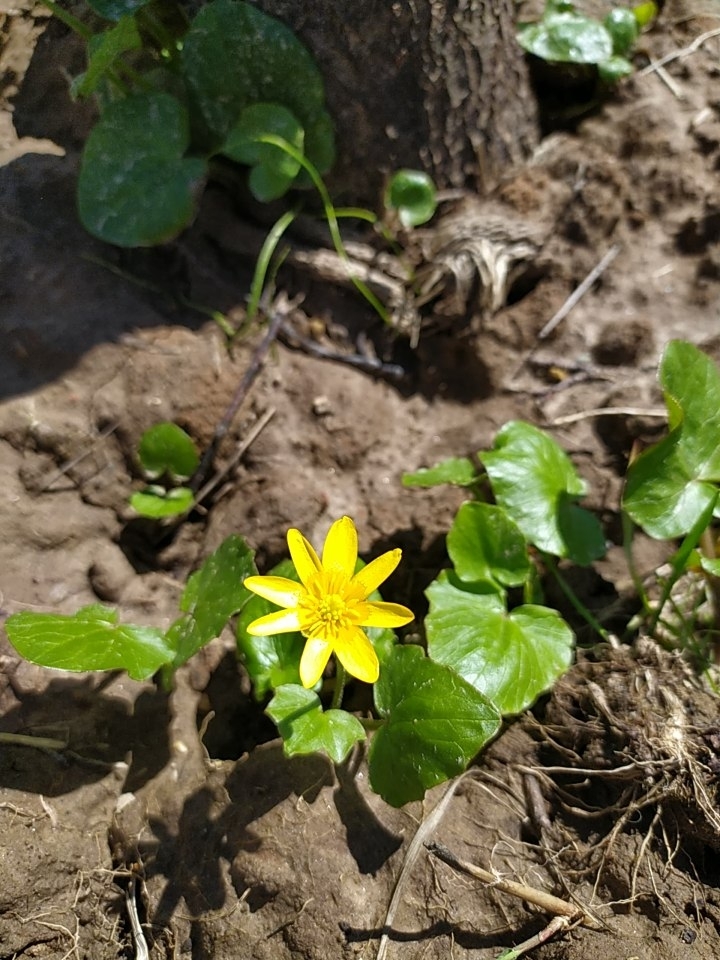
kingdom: Plantae
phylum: Tracheophyta
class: Magnoliopsida
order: Ranunculales
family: Ranunculaceae
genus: Ficaria
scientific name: Ficaria verna
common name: Lesser celandine
